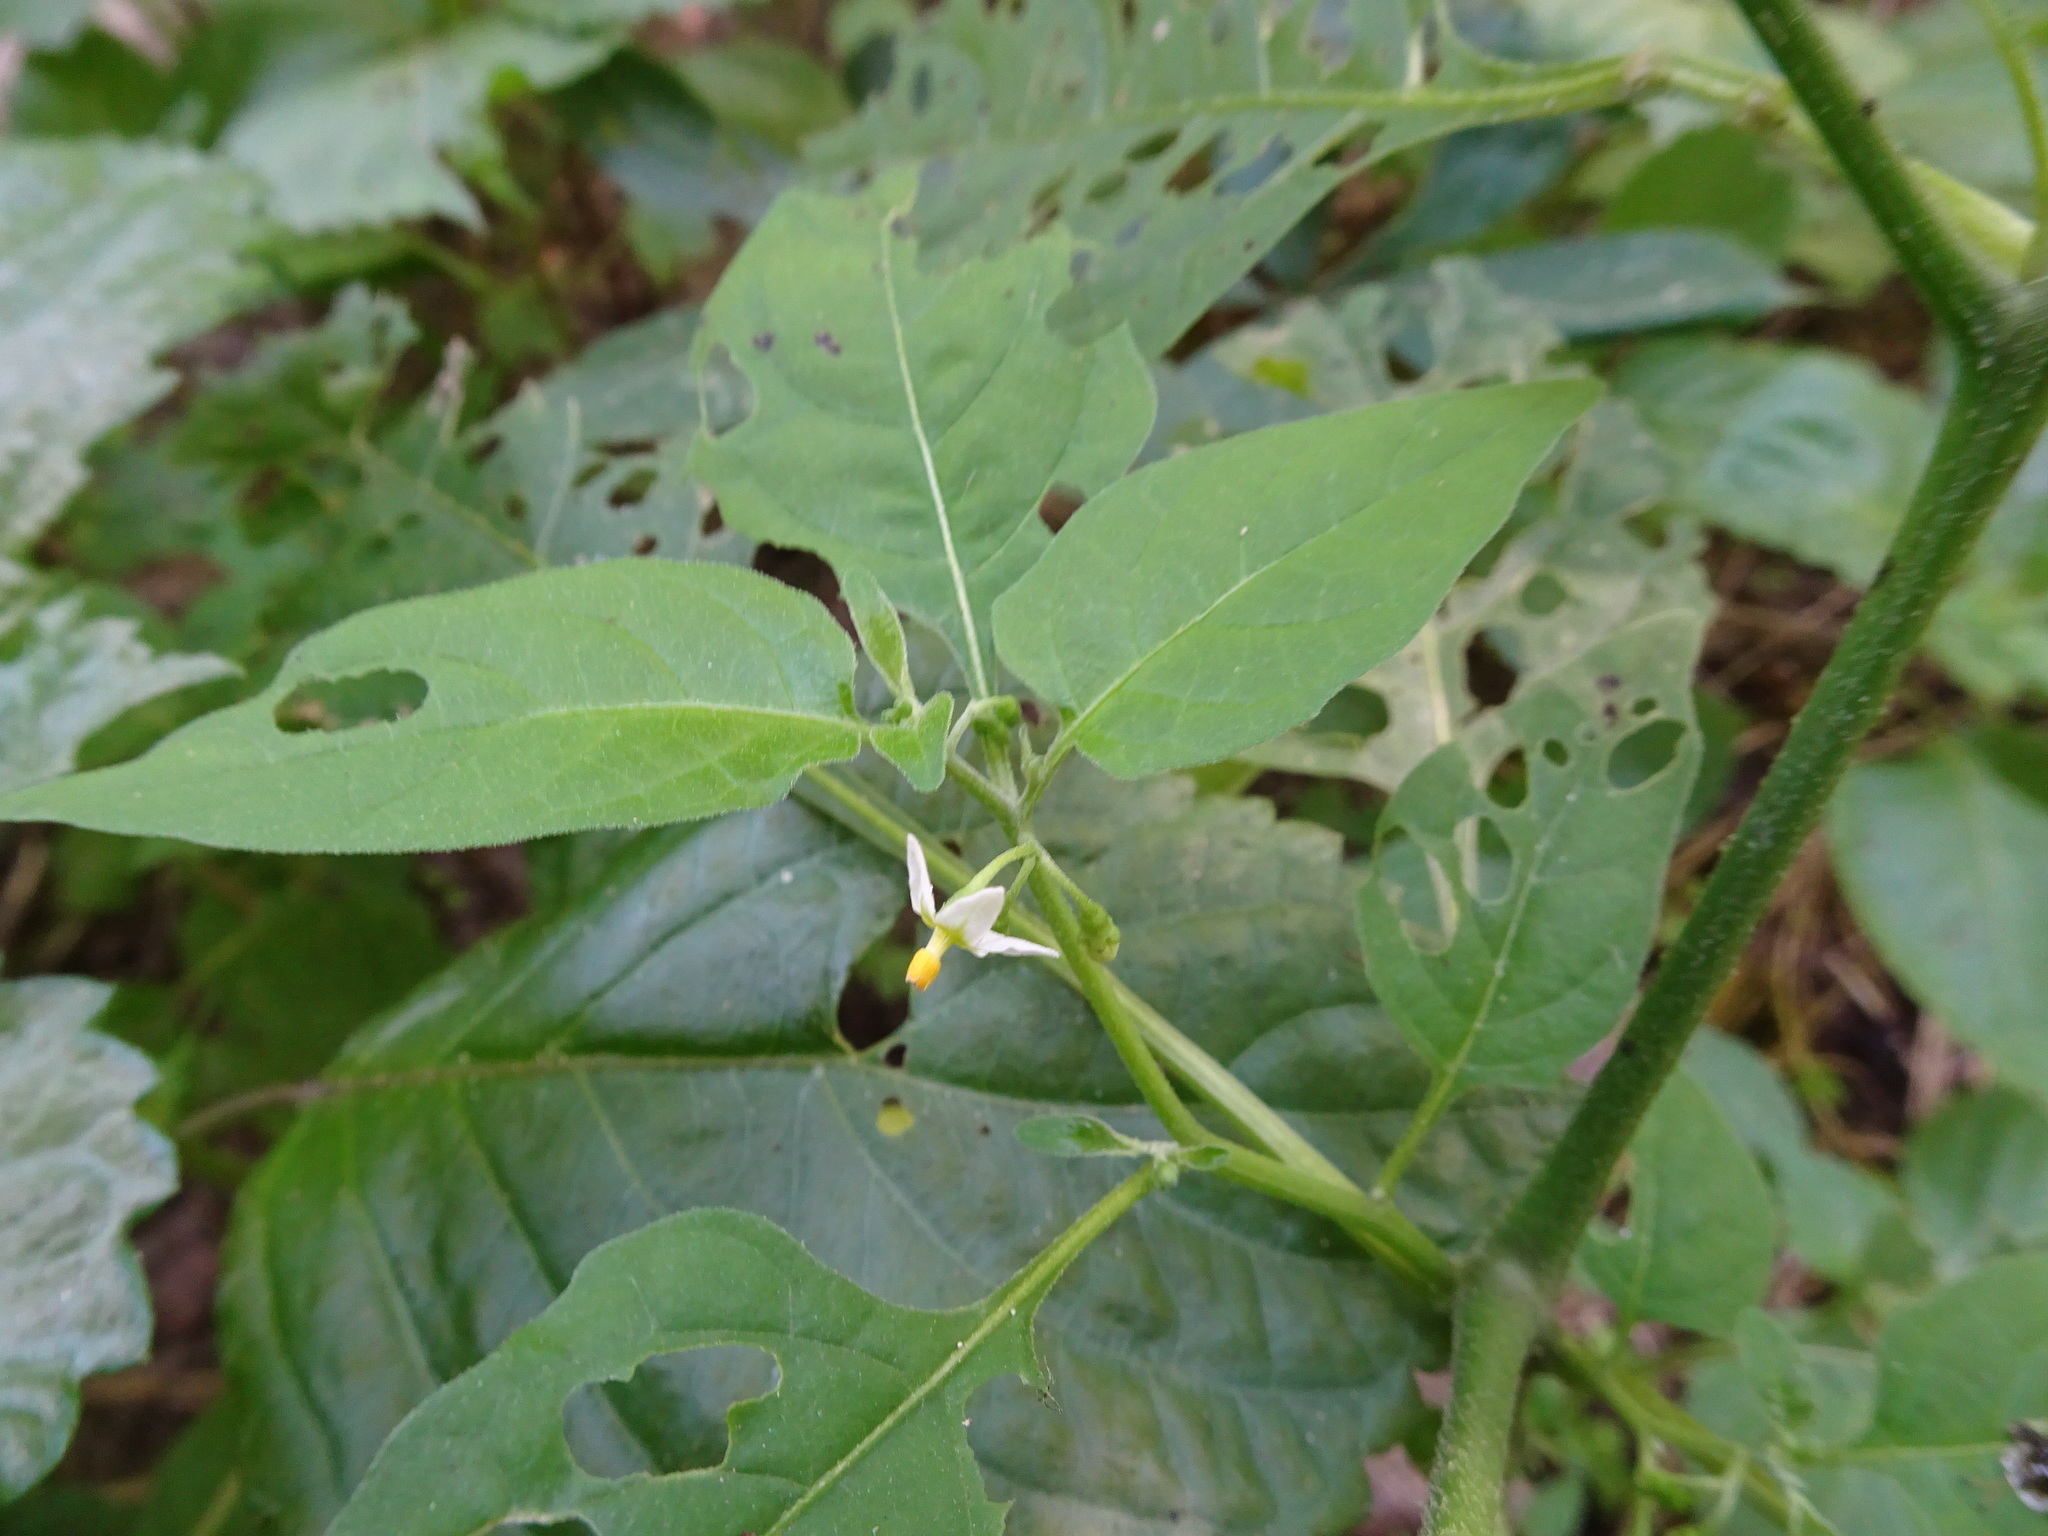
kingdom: Plantae
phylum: Tracheophyta
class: Magnoliopsida
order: Solanales
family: Solanaceae
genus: Solanum
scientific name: Solanum emulans
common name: Eastern black nightshade
